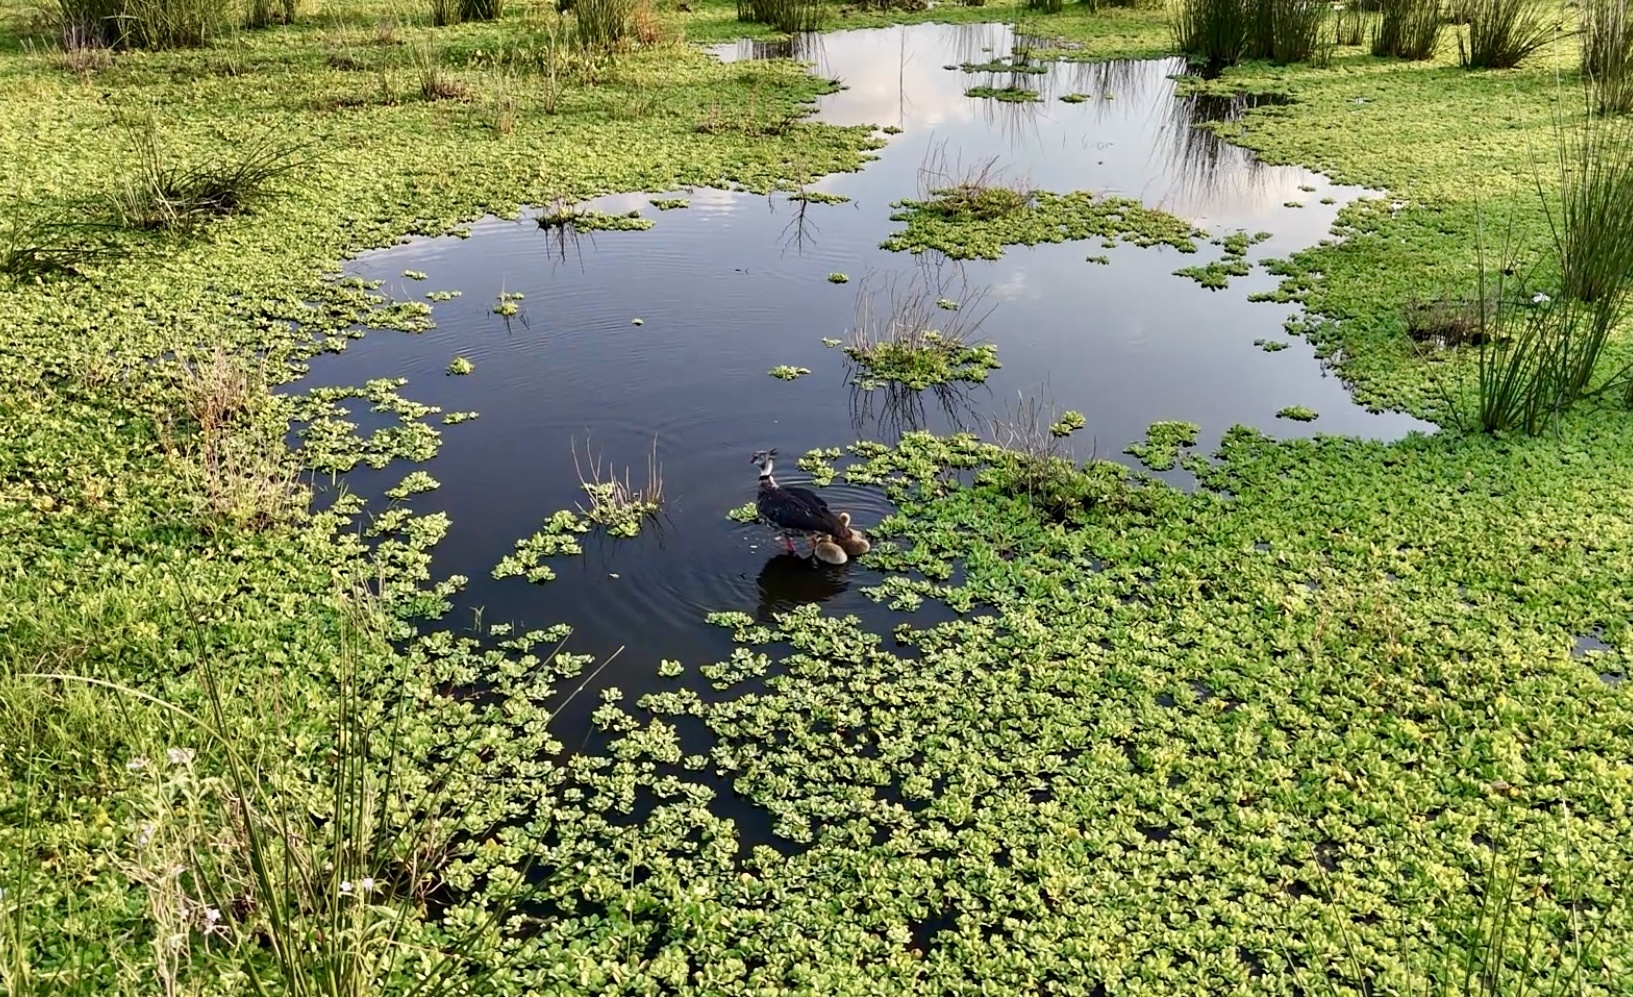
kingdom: Animalia
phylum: Chordata
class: Aves
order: Anseriformes
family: Anhimidae
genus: Chauna
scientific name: Chauna torquata
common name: Southern screamer
